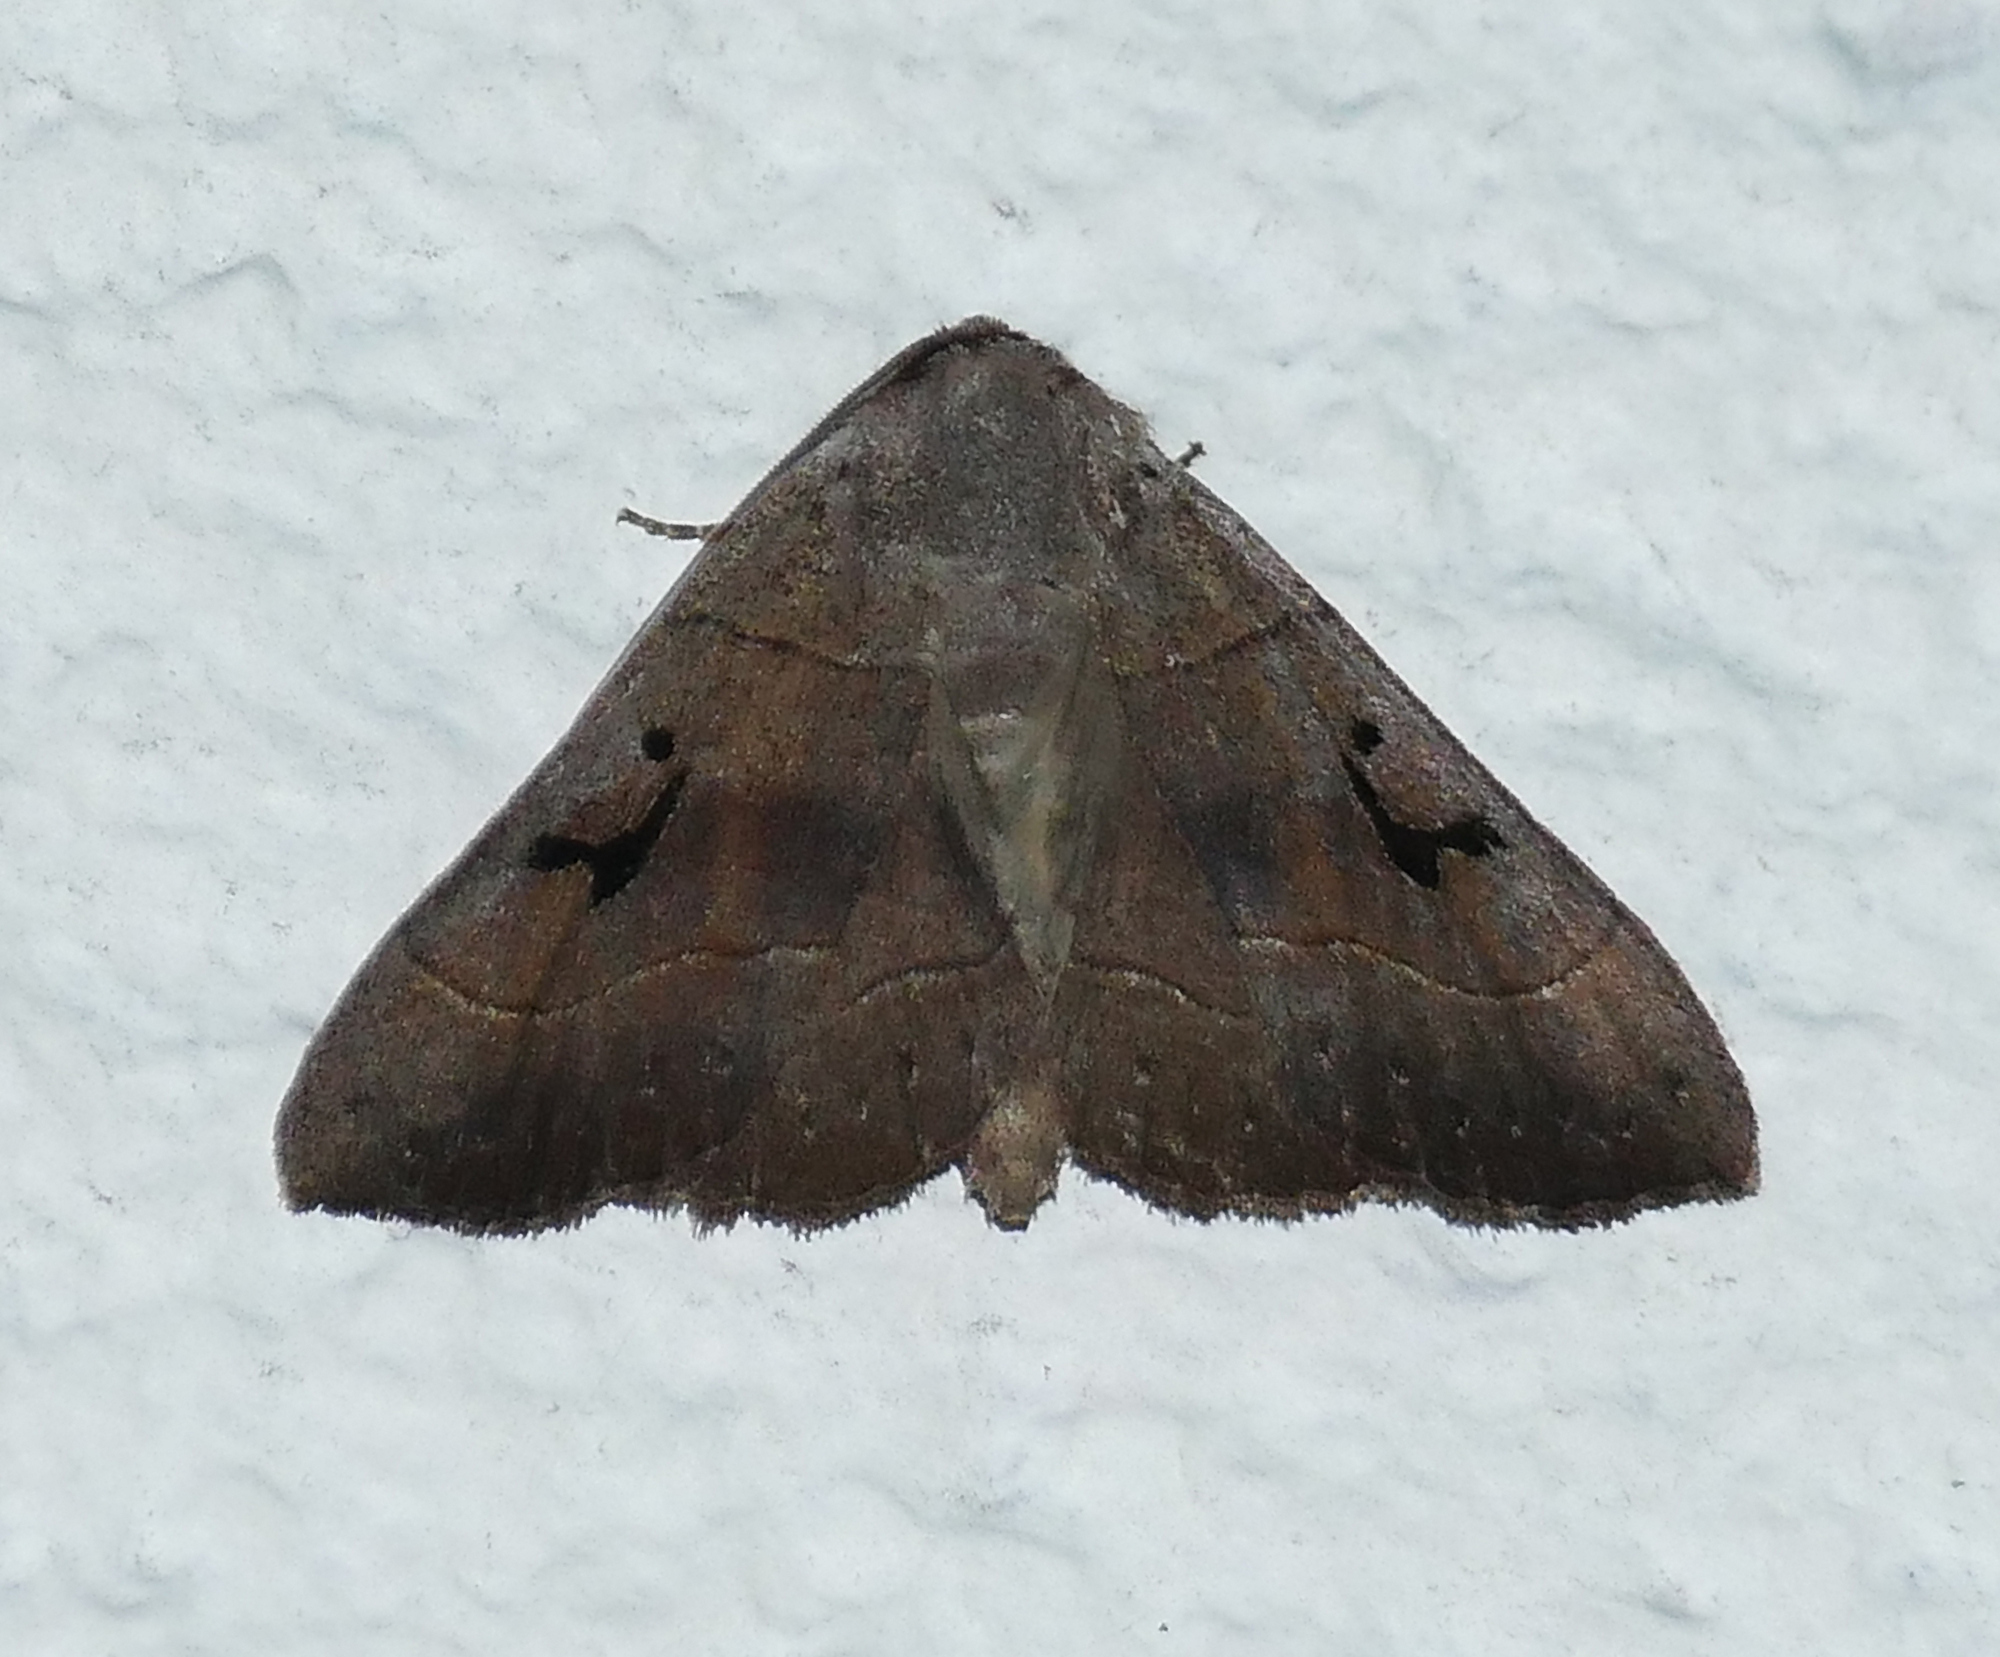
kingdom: Animalia
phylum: Arthropoda
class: Insecta
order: Lepidoptera
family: Erebidae
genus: Panopoda
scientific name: Panopoda carneicosta
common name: Brown panopoda moth
